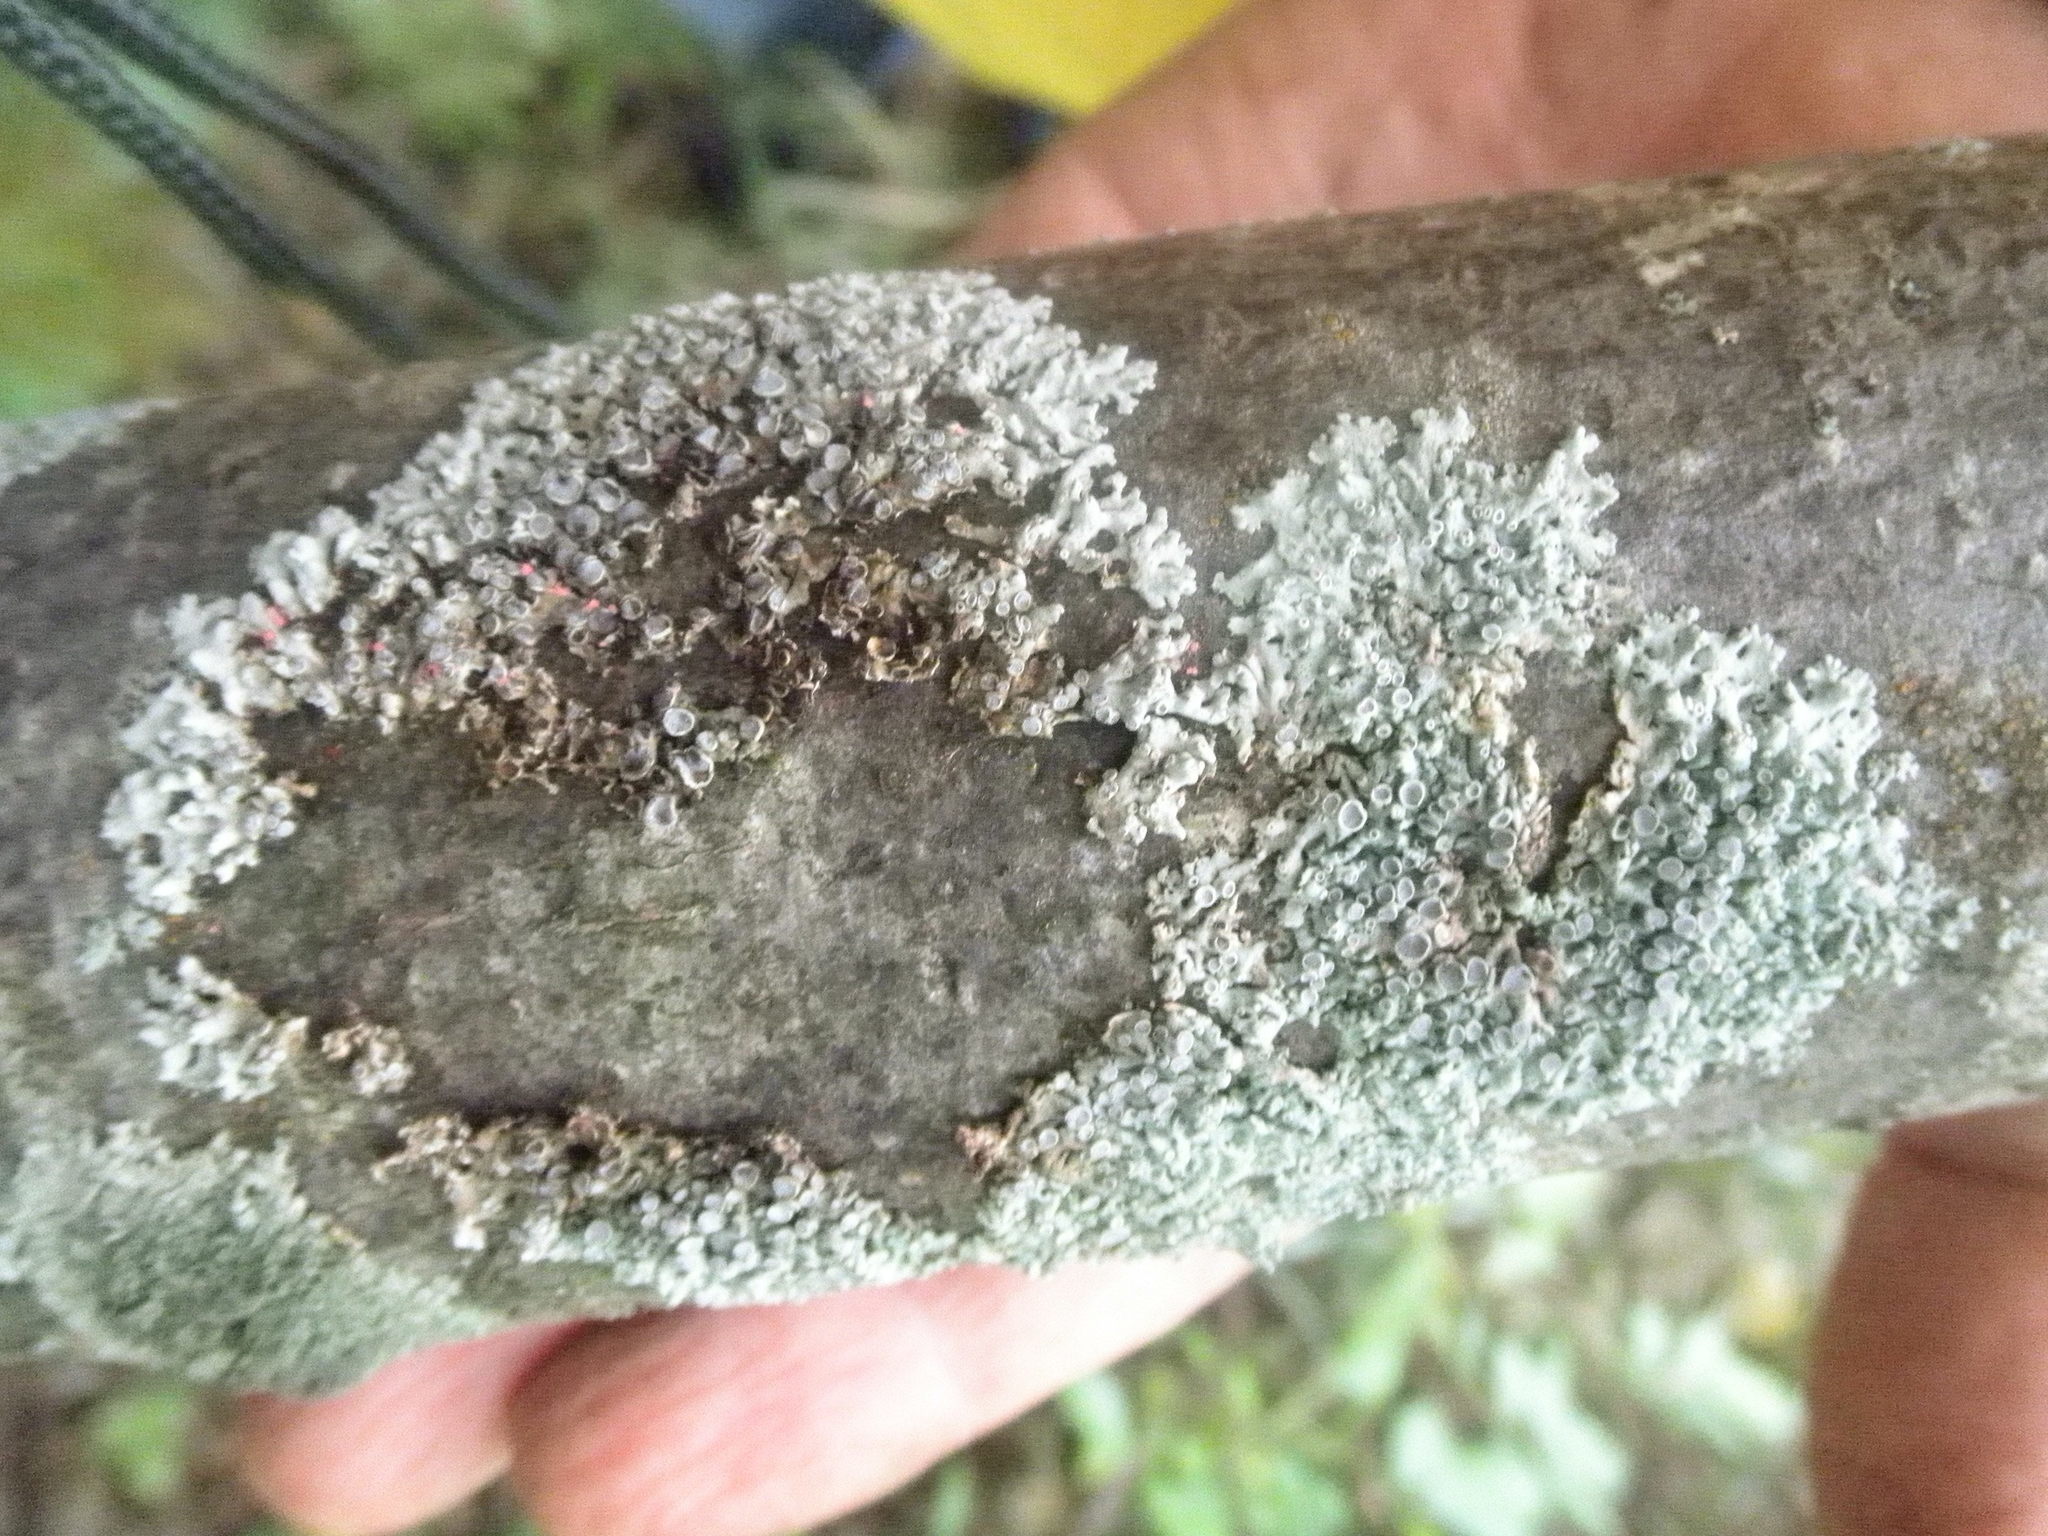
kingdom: Fungi
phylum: Ascomycota
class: Lecanoromycetes
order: Caliciales
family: Physciaceae
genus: Physcia
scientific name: Physcia stellaris
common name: Star rosette lichen
